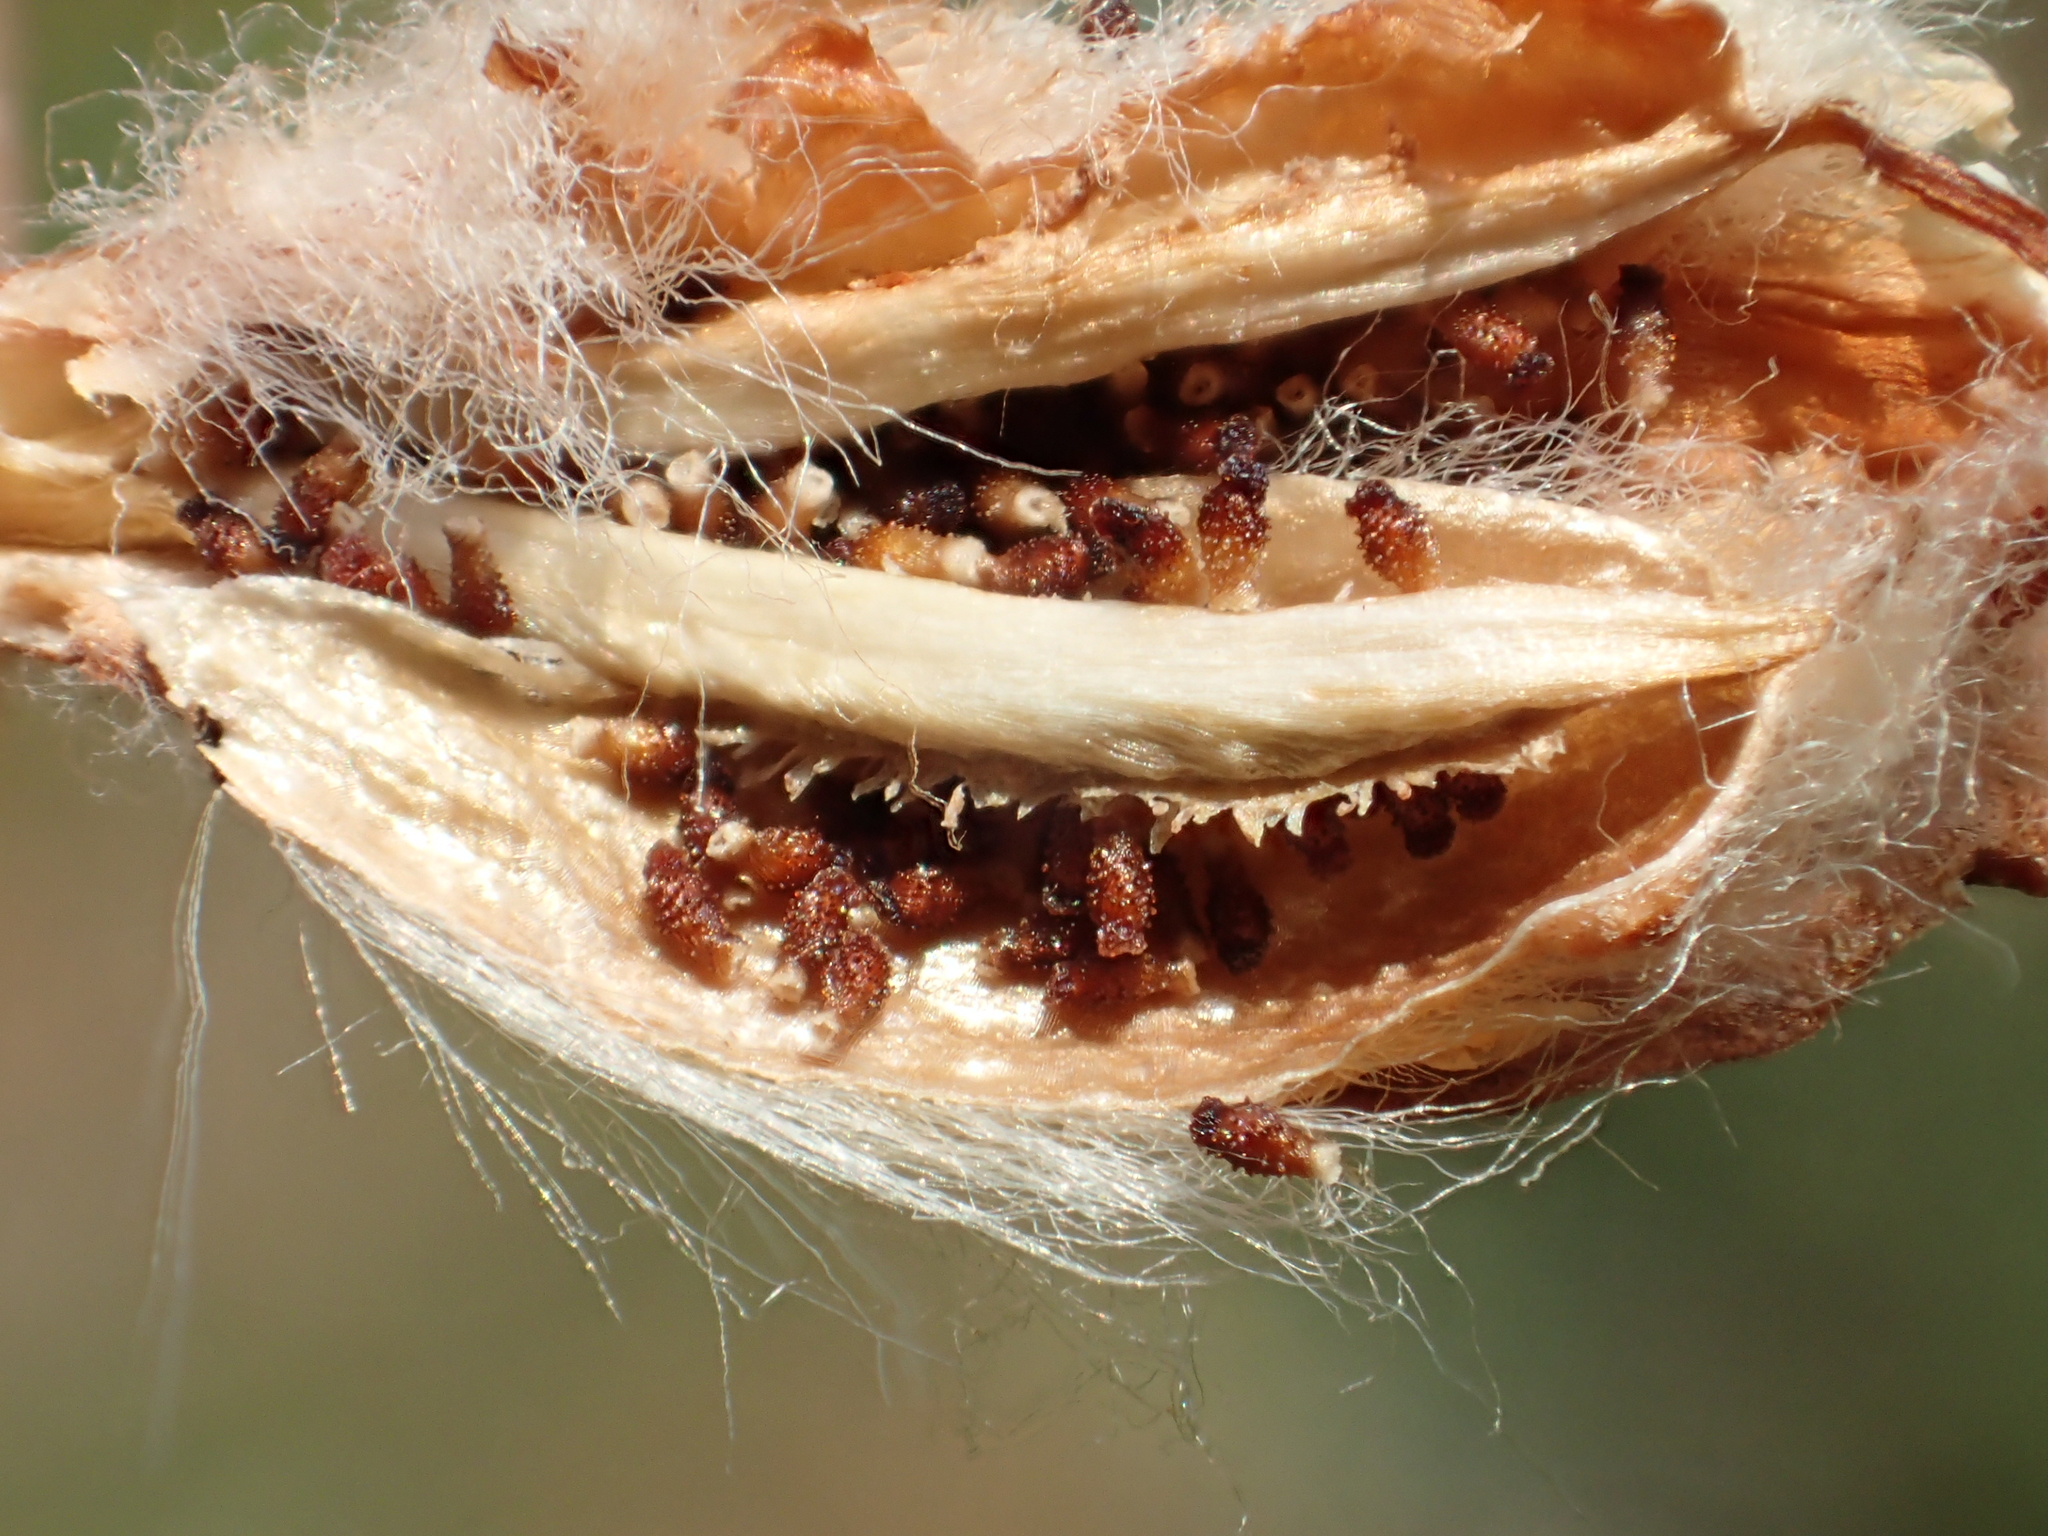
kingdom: Plantae
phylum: Tracheophyta
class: Liliopsida
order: Commelinales
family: Philydraceae
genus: Philydrum
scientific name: Philydrum lanuginosum
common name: Woolly frog's mouth
